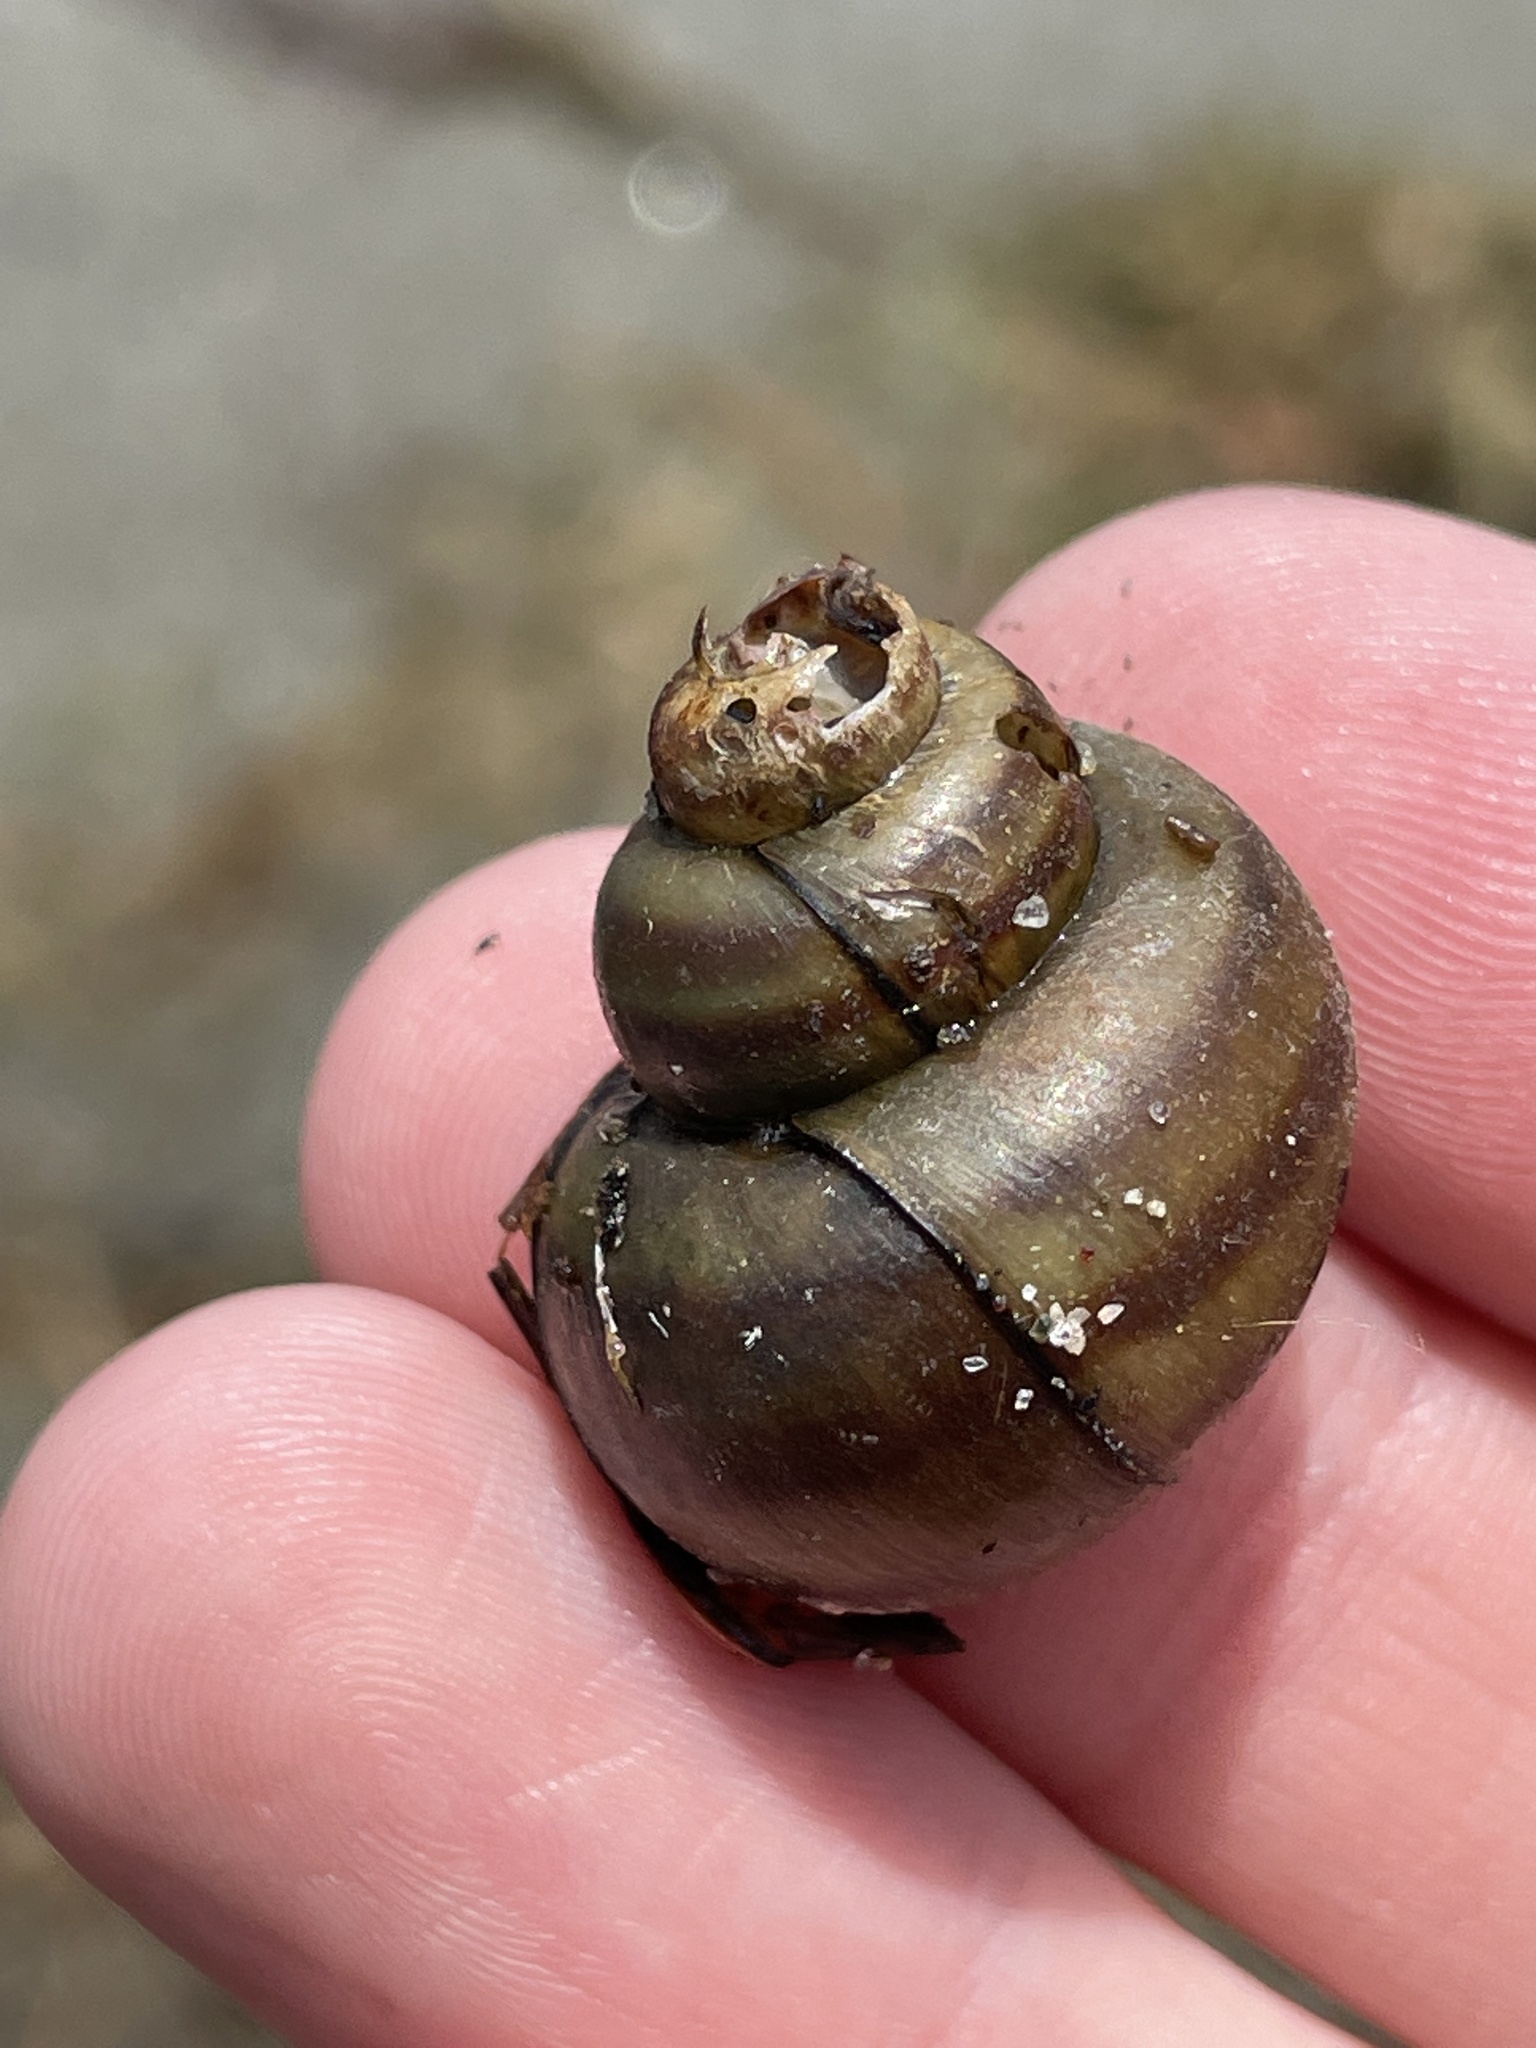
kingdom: Animalia
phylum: Mollusca
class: Gastropoda
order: Architaenioglossa
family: Viviparidae
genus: Callinina
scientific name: Callinina georgiana
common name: Banded mystery snail
